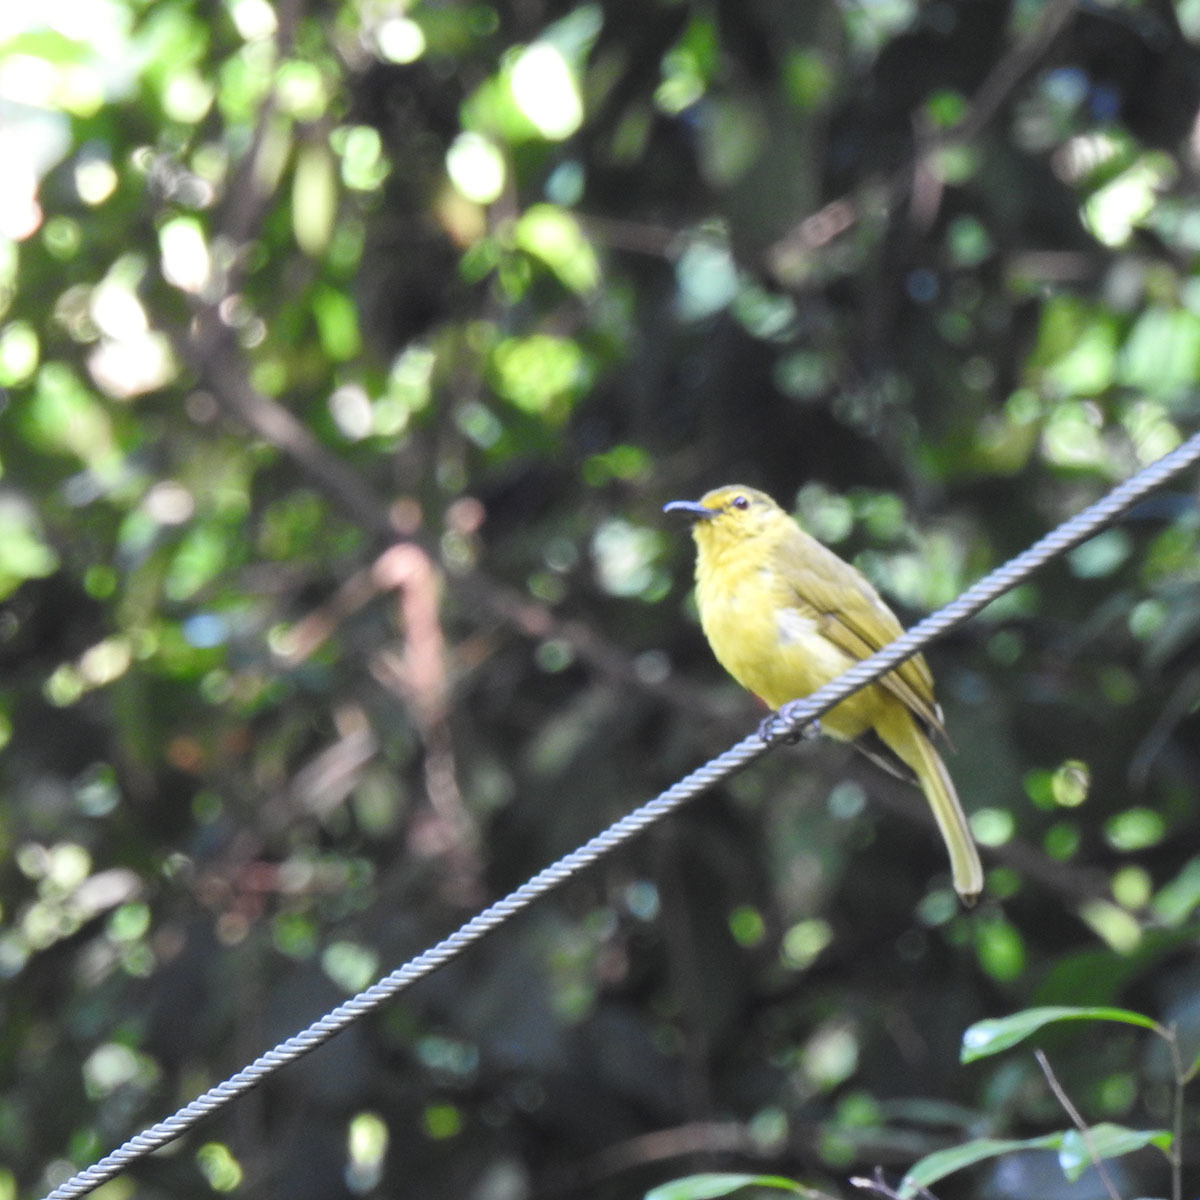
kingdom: Animalia
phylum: Chordata
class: Aves
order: Passeriformes
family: Pycnonotidae
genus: Acritillas
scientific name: Acritillas indica
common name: Yellow-browed bulbul
